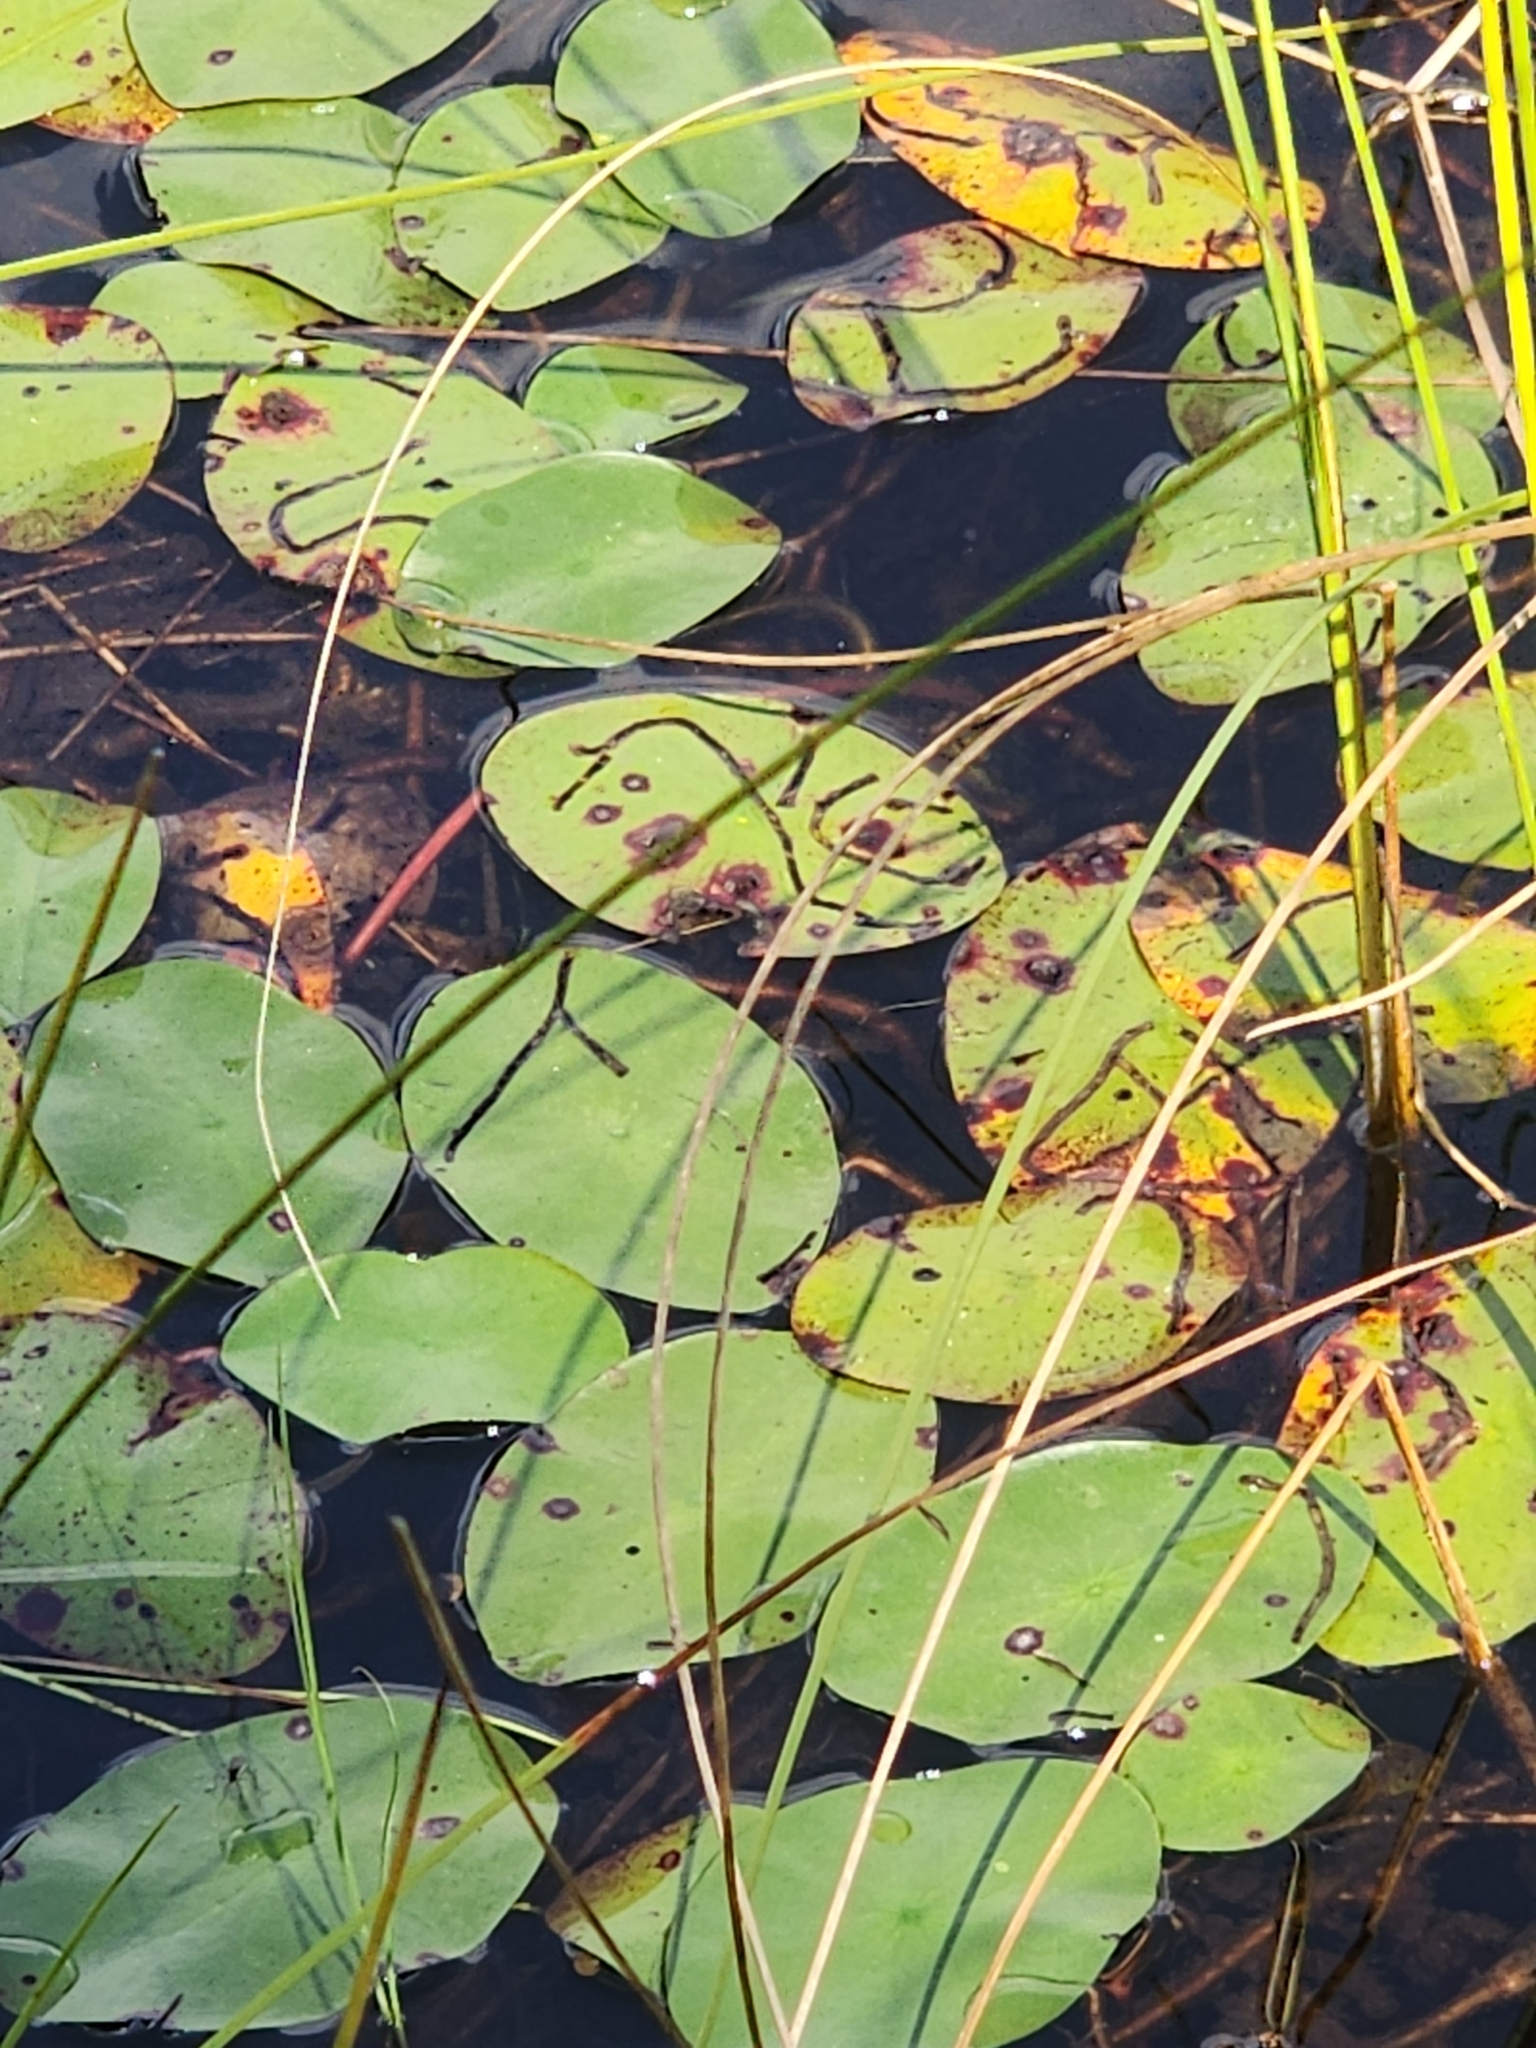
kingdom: Plantae
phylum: Tracheophyta
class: Magnoliopsida
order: Nymphaeales
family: Cabombaceae
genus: Brasenia
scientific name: Brasenia schreberi
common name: Water-shield
